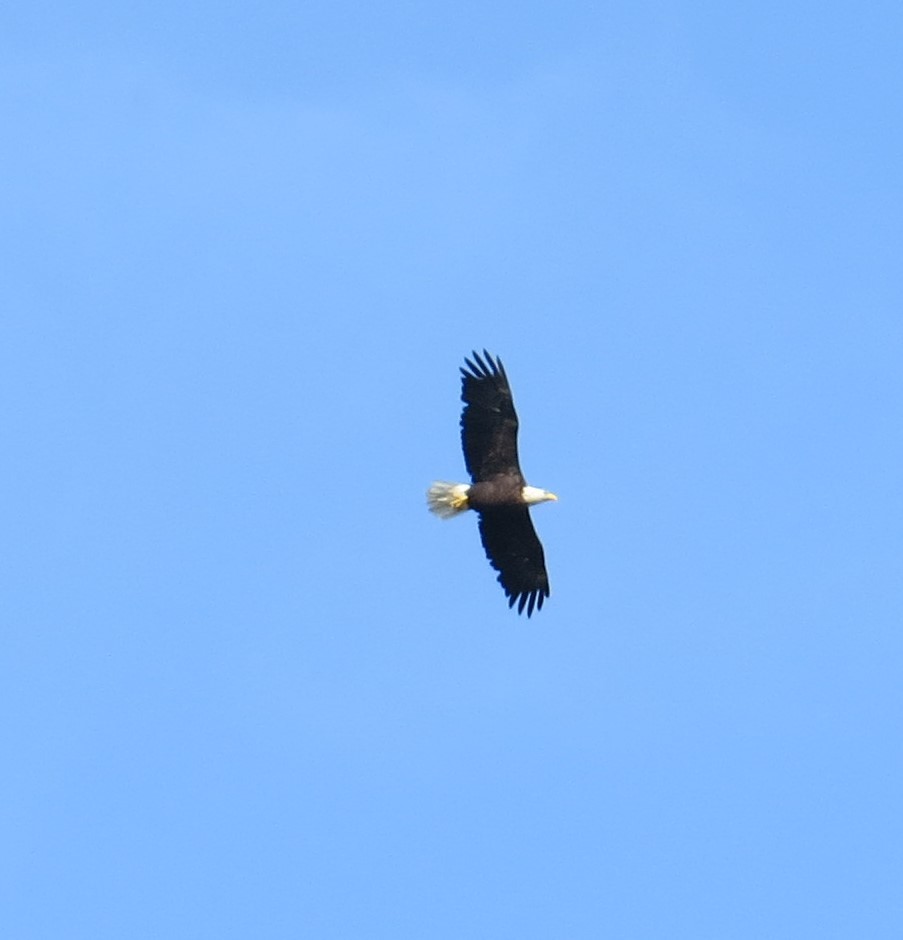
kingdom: Animalia
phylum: Chordata
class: Aves
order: Accipitriformes
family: Accipitridae
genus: Haliaeetus
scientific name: Haliaeetus leucocephalus
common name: Bald eagle
